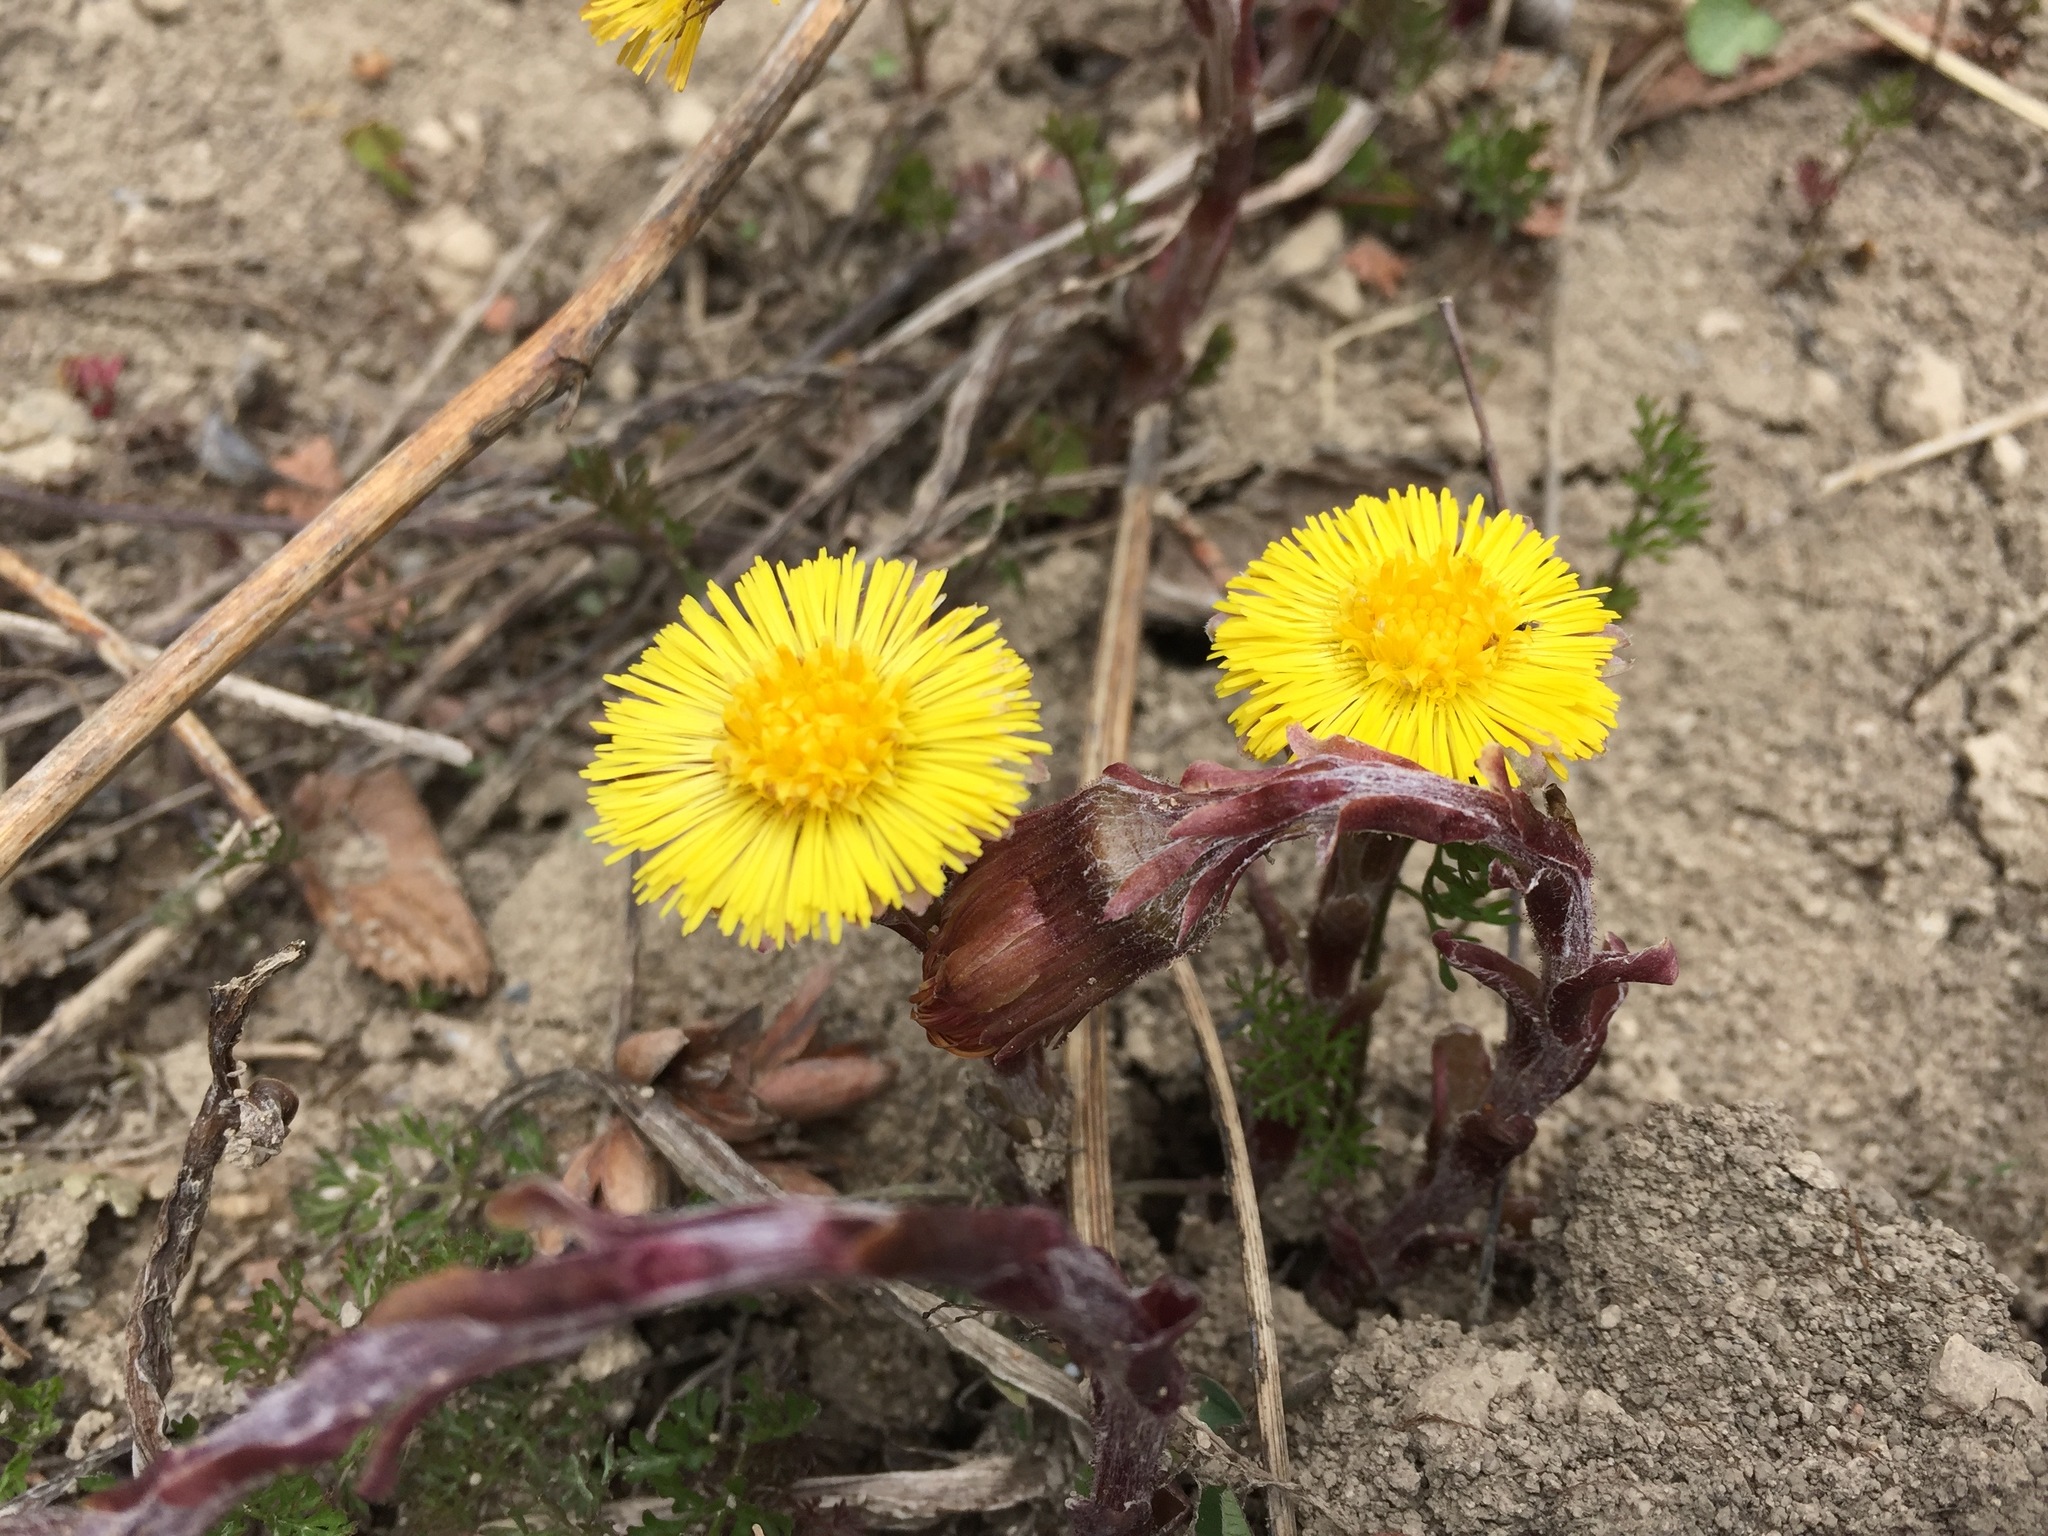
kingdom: Plantae
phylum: Tracheophyta
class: Magnoliopsida
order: Asterales
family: Asteraceae
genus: Tussilago
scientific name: Tussilago farfara
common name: Coltsfoot
